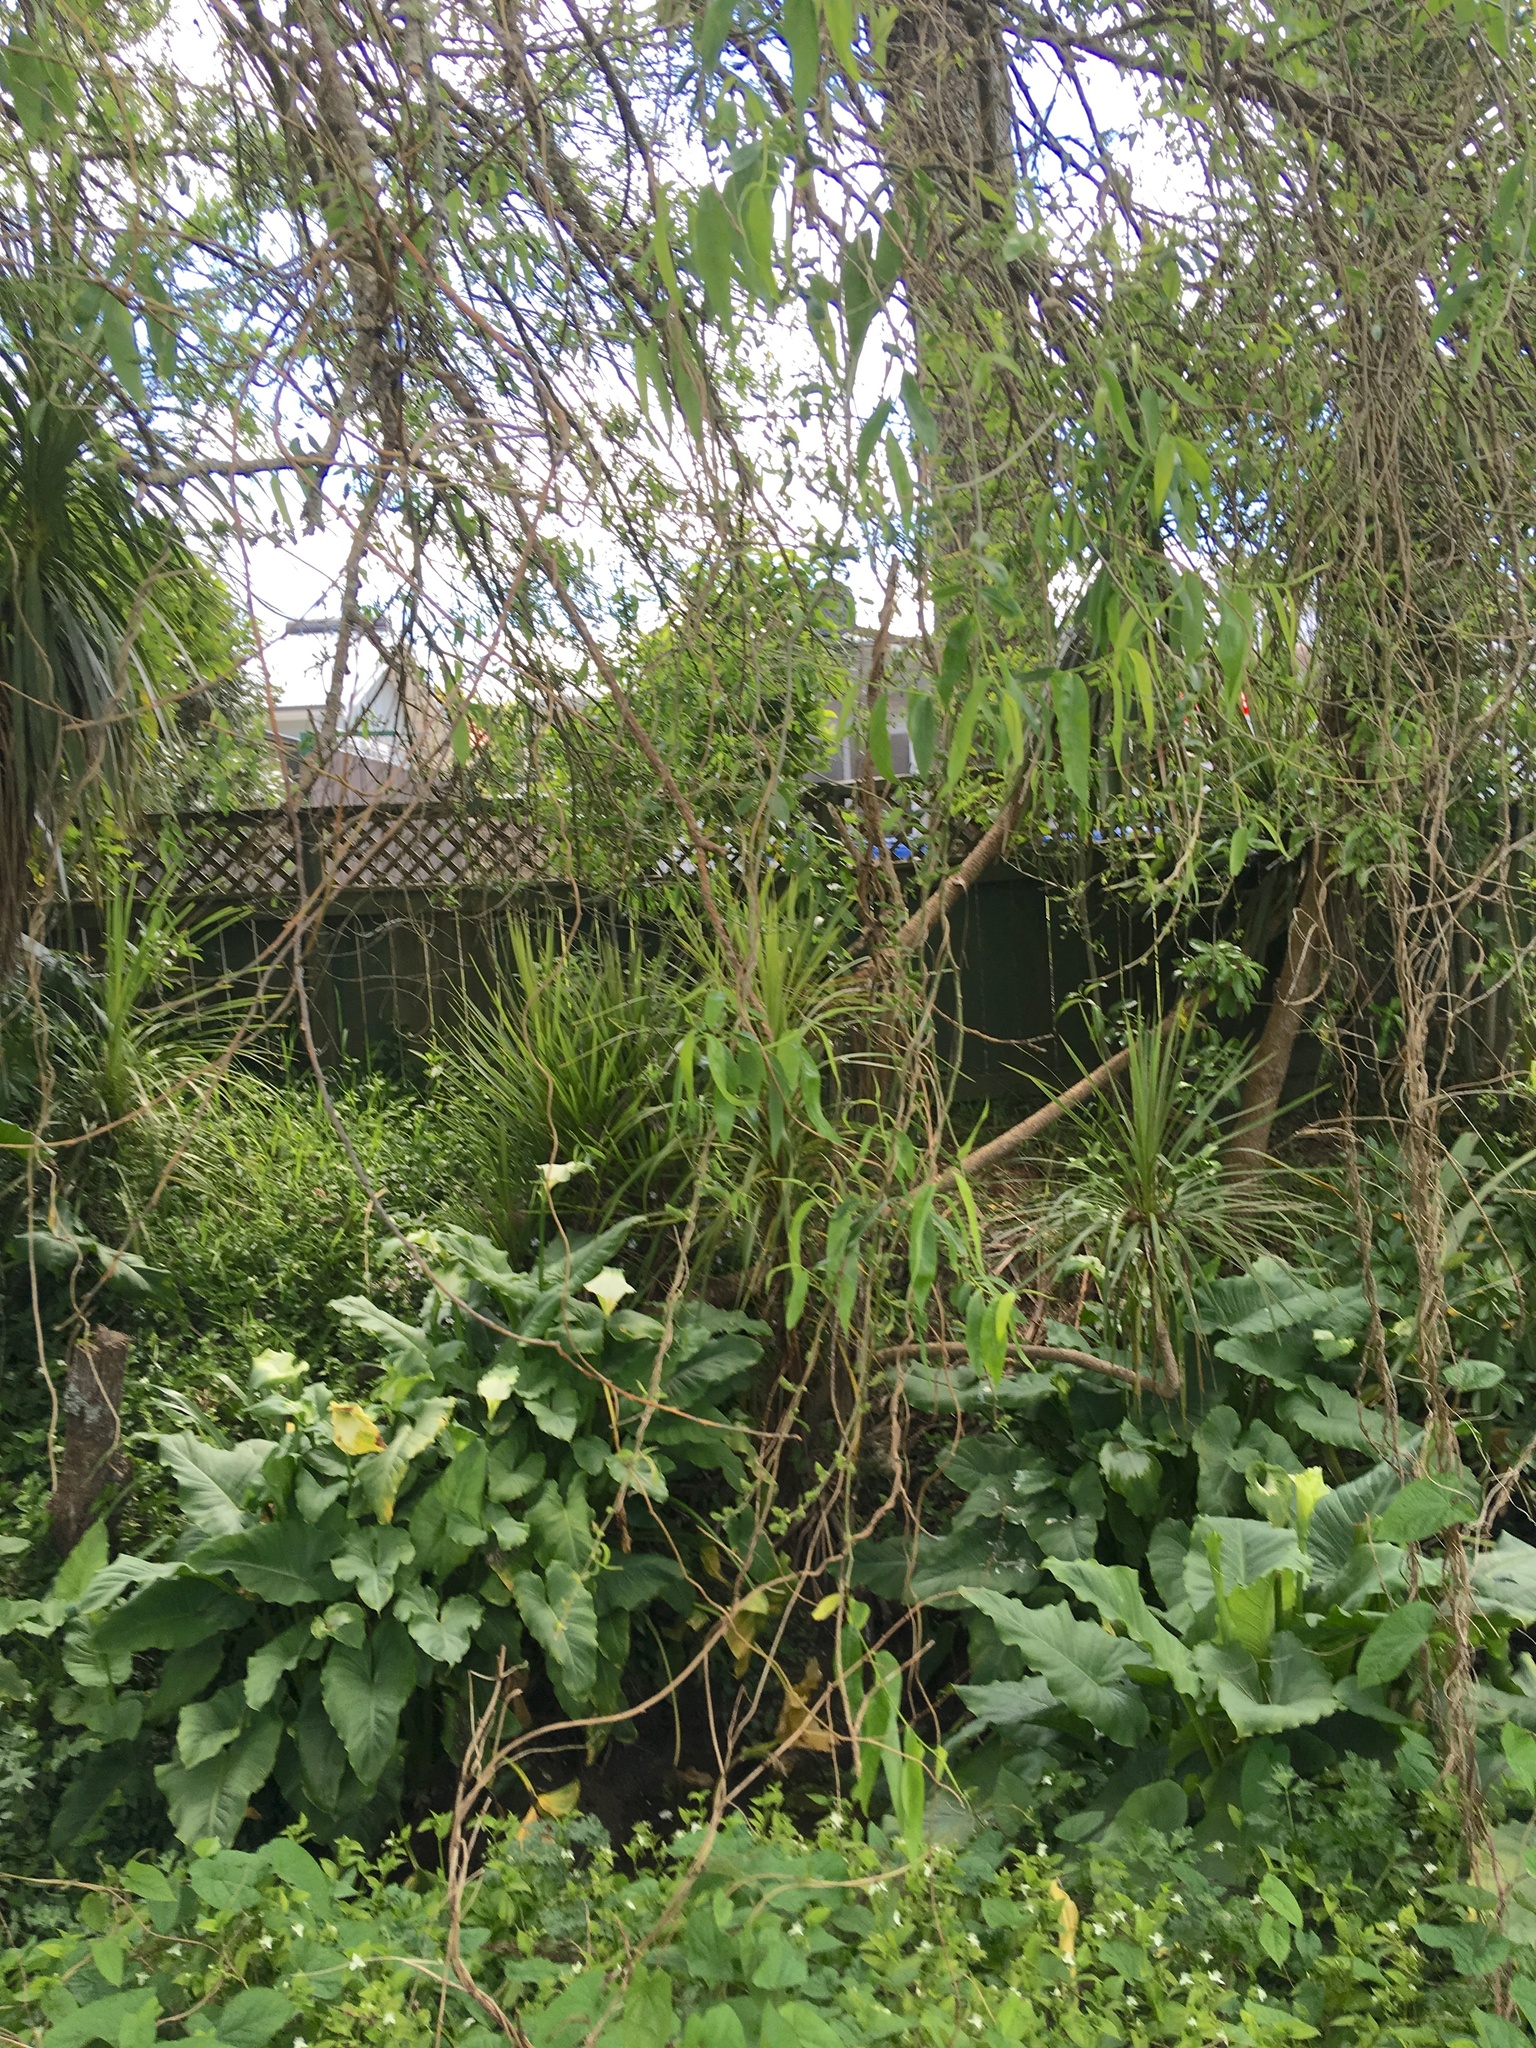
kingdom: Plantae
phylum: Tracheophyta
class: Liliopsida
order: Alismatales
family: Araceae
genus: Zantedeschia
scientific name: Zantedeschia aethiopica
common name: Altar-lily
